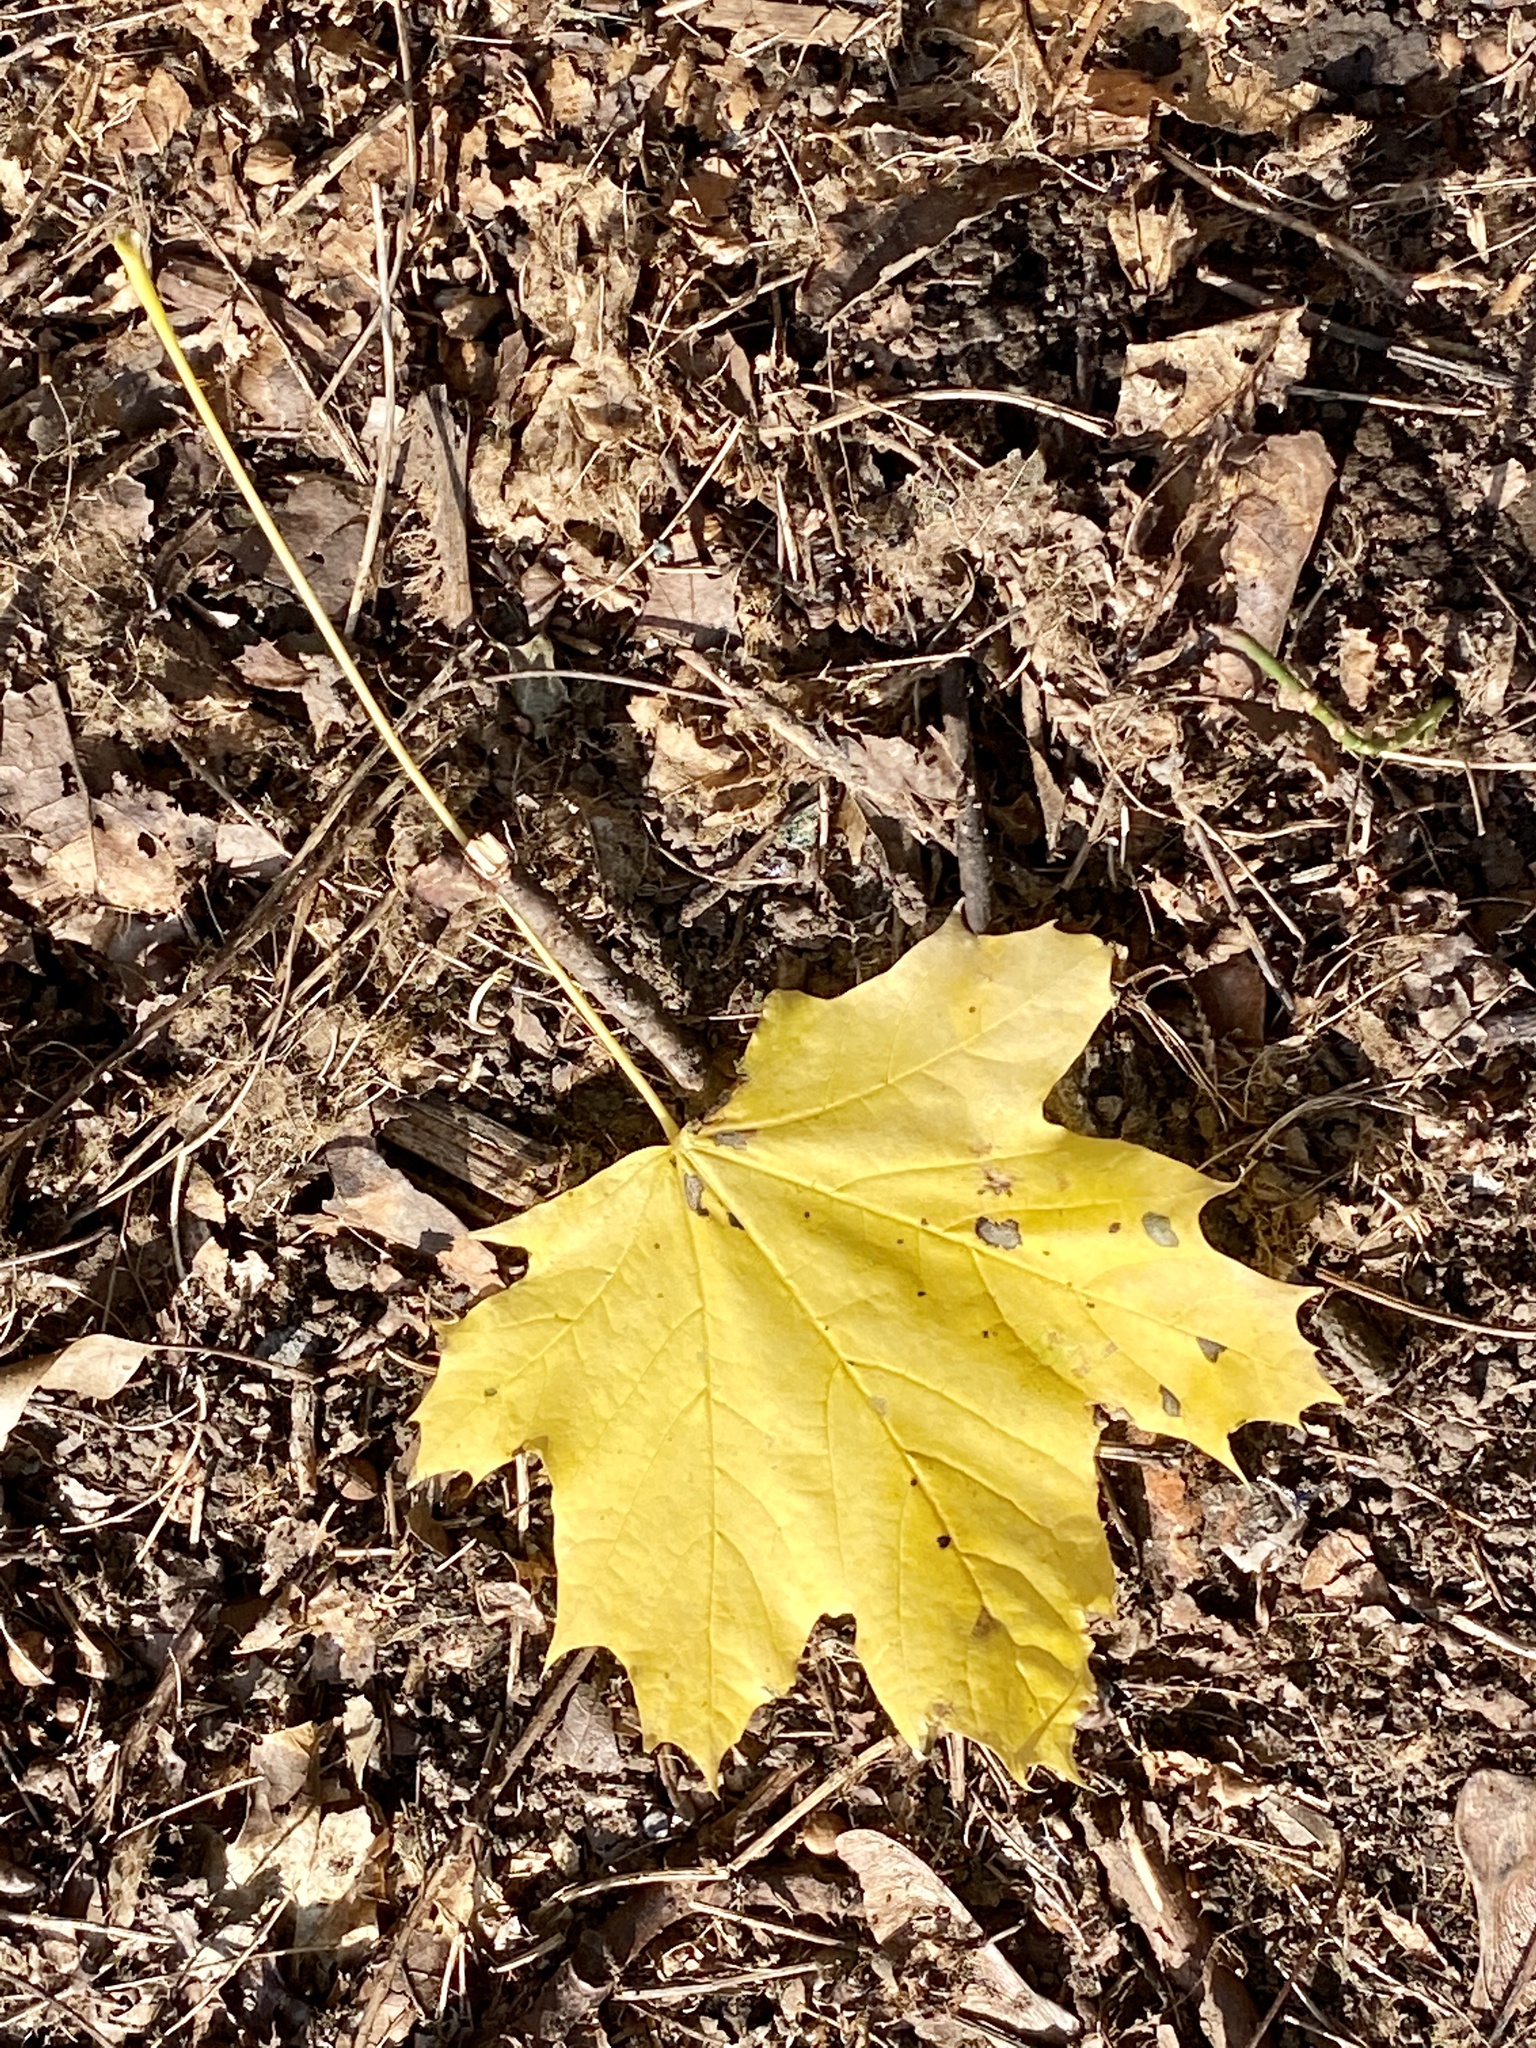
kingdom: Plantae
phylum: Tracheophyta
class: Magnoliopsida
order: Sapindales
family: Sapindaceae
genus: Acer
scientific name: Acer platanoides
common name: Norway maple
